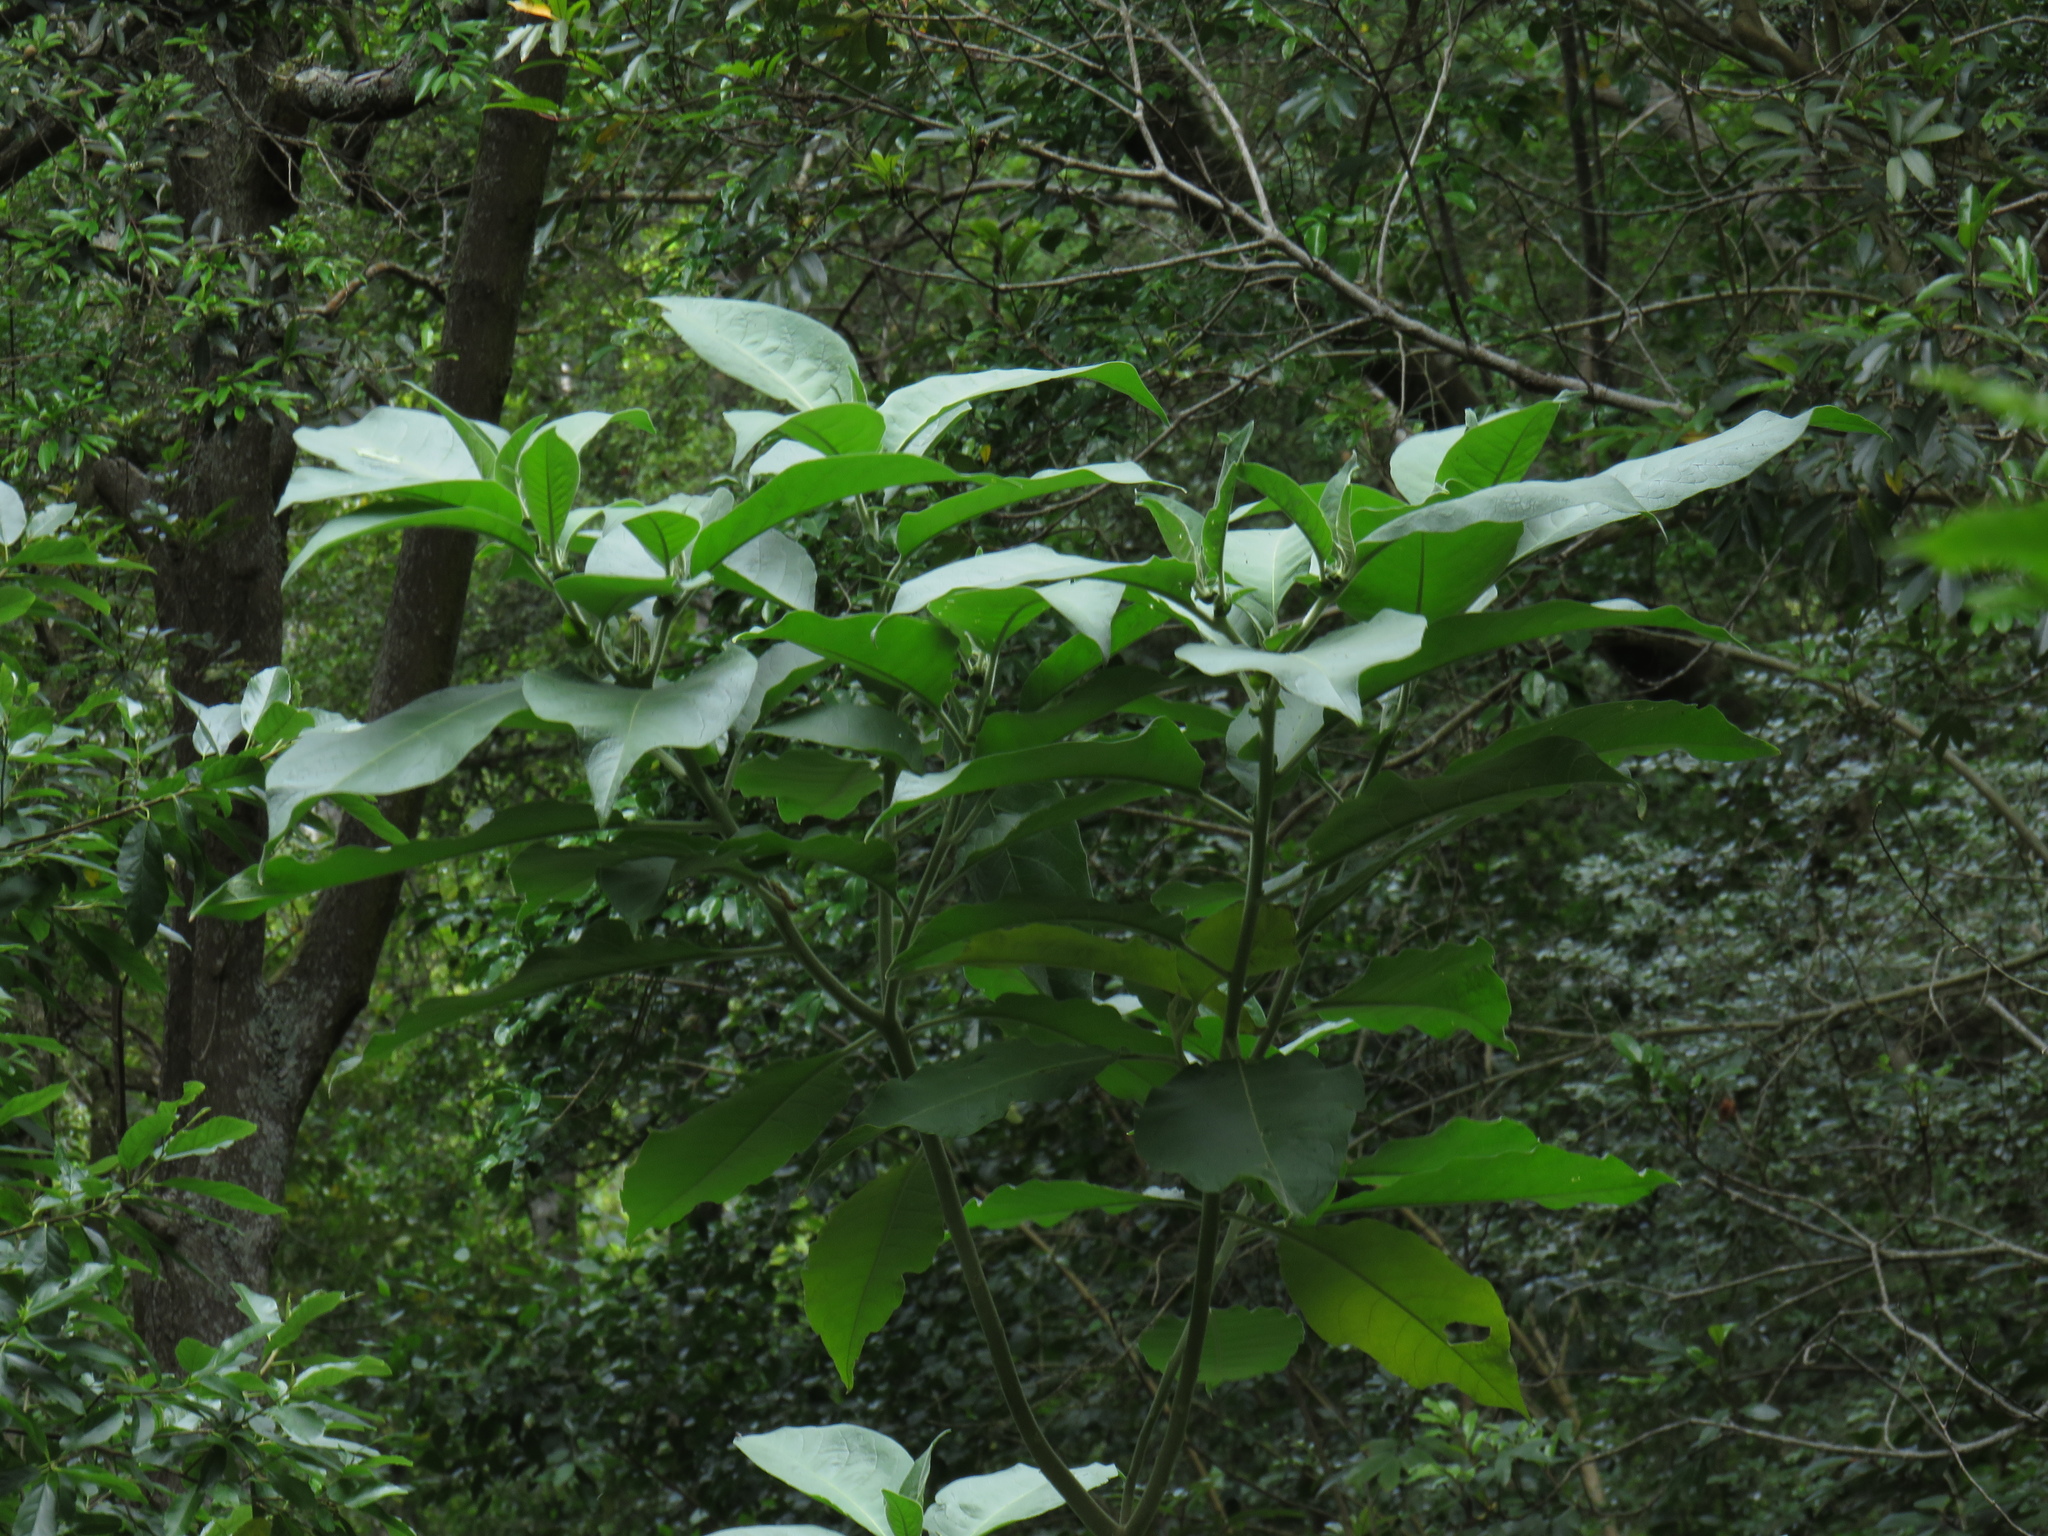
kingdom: Plantae
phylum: Tracheophyta
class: Magnoliopsida
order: Solanales
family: Solanaceae
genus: Solanum
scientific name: Solanum mauritianum
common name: Earleaf nightshade
